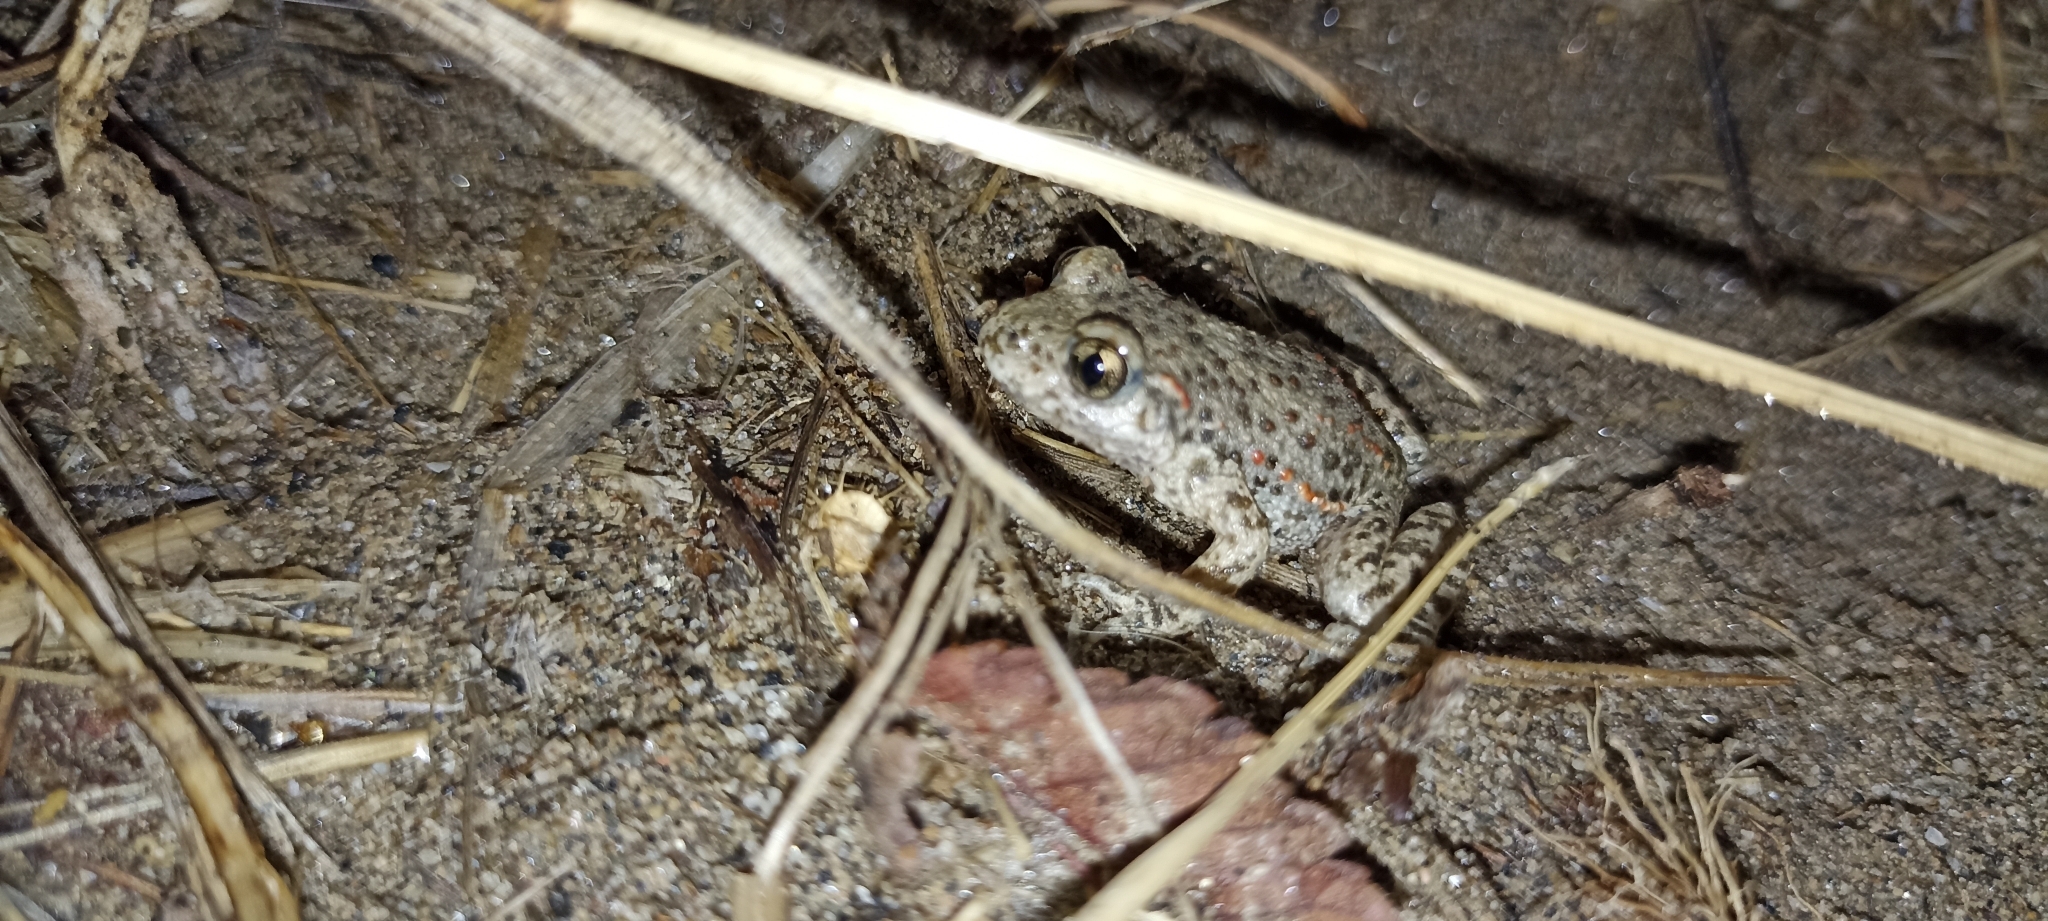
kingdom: Animalia
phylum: Chordata
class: Amphibia
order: Anura
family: Alytidae
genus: Alytes
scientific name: Alytes obstetricans
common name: Midwife toad
